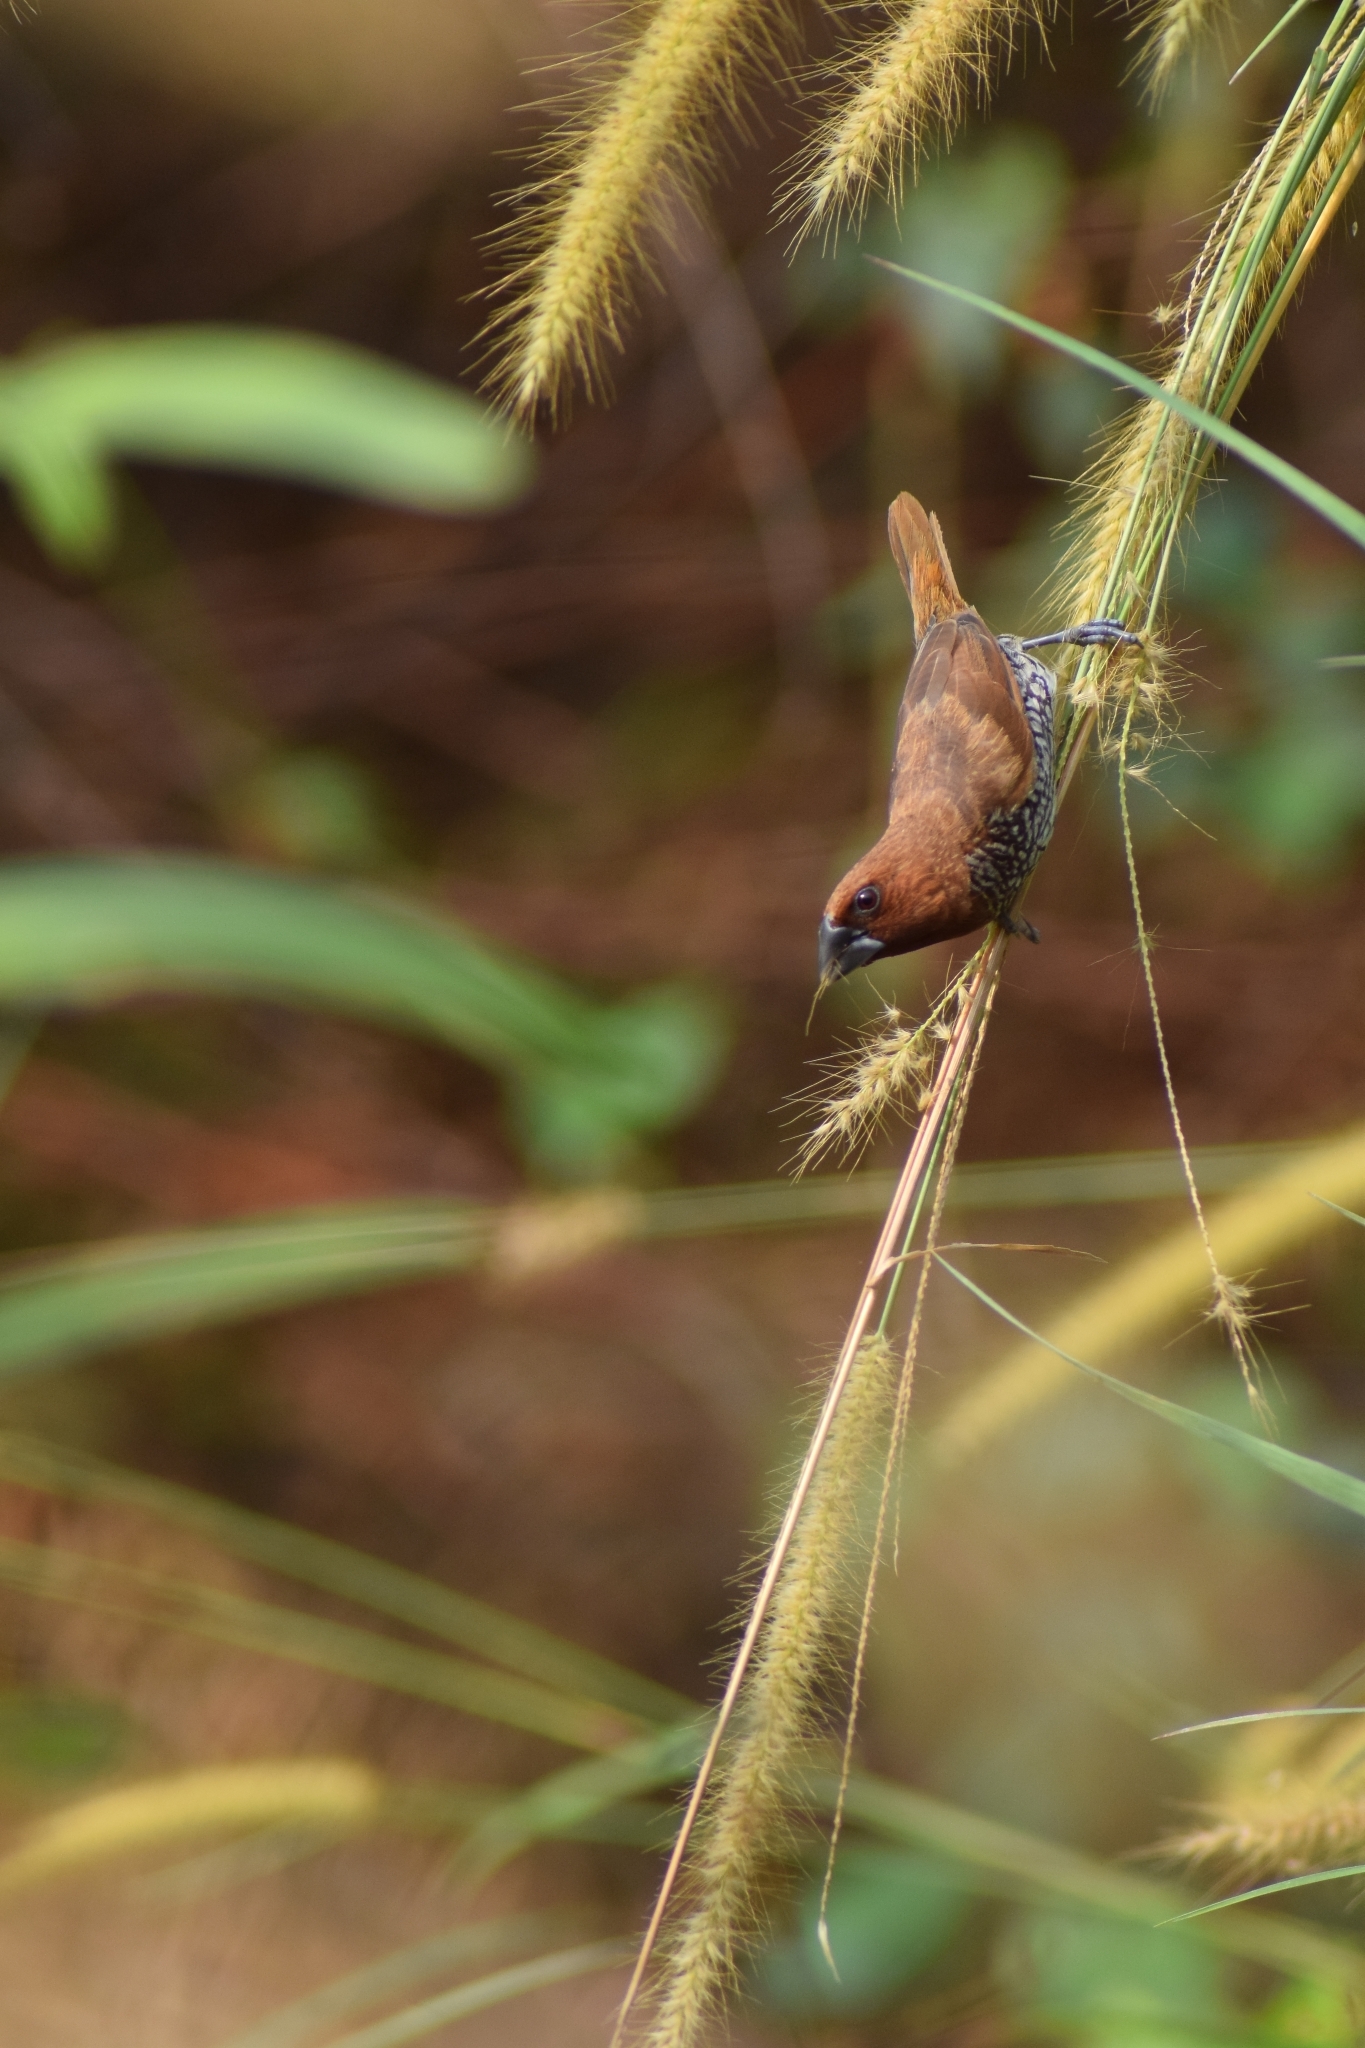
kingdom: Animalia
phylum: Chordata
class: Aves
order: Passeriformes
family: Estrildidae
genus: Lonchura
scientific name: Lonchura punctulata
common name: Scaly-breasted munia
